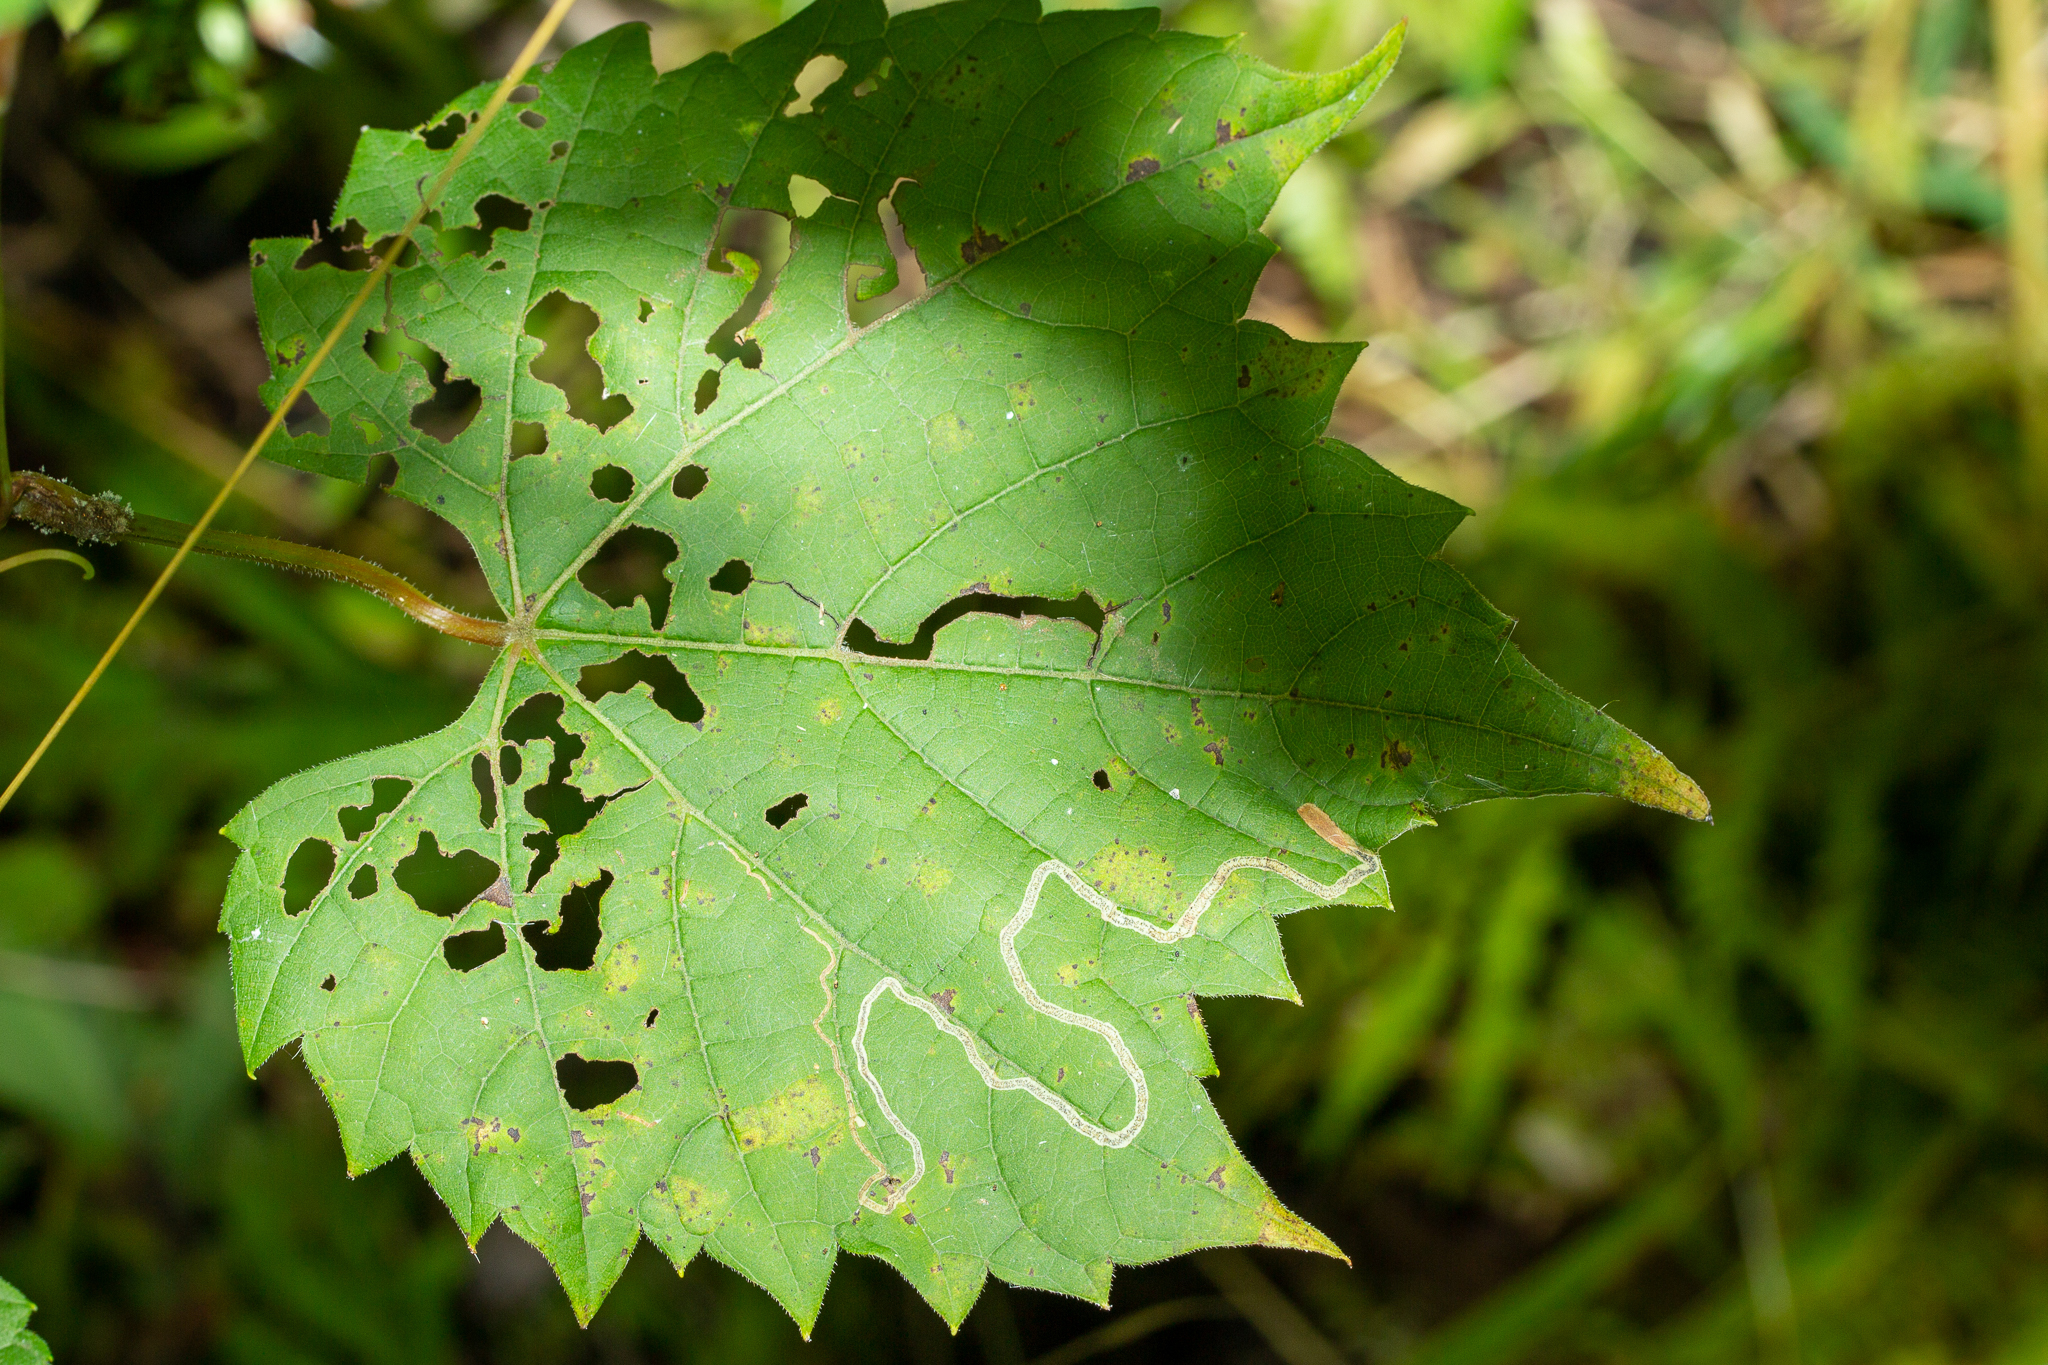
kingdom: Animalia
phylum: Arthropoda
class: Insecta
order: Lepidoptera
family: Gracillariidae
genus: Phyllocnistis
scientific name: Phyllocnistis vitifoliella
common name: Grape leaf-miner moth
